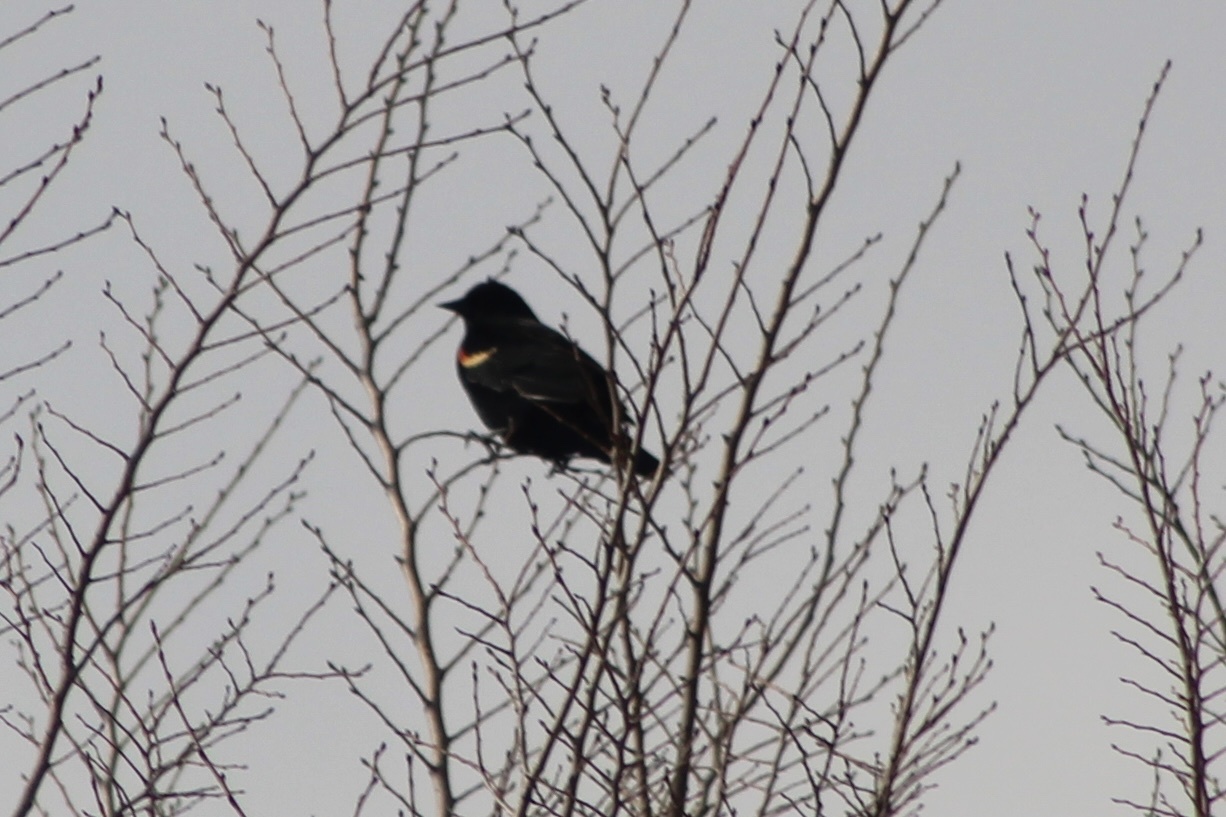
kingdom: Animalia
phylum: Chordata
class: Aves
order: Passeriformes
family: Icteridae
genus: Agelaius
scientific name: Agelaius phoeniceus
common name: Red-winged blackbird
